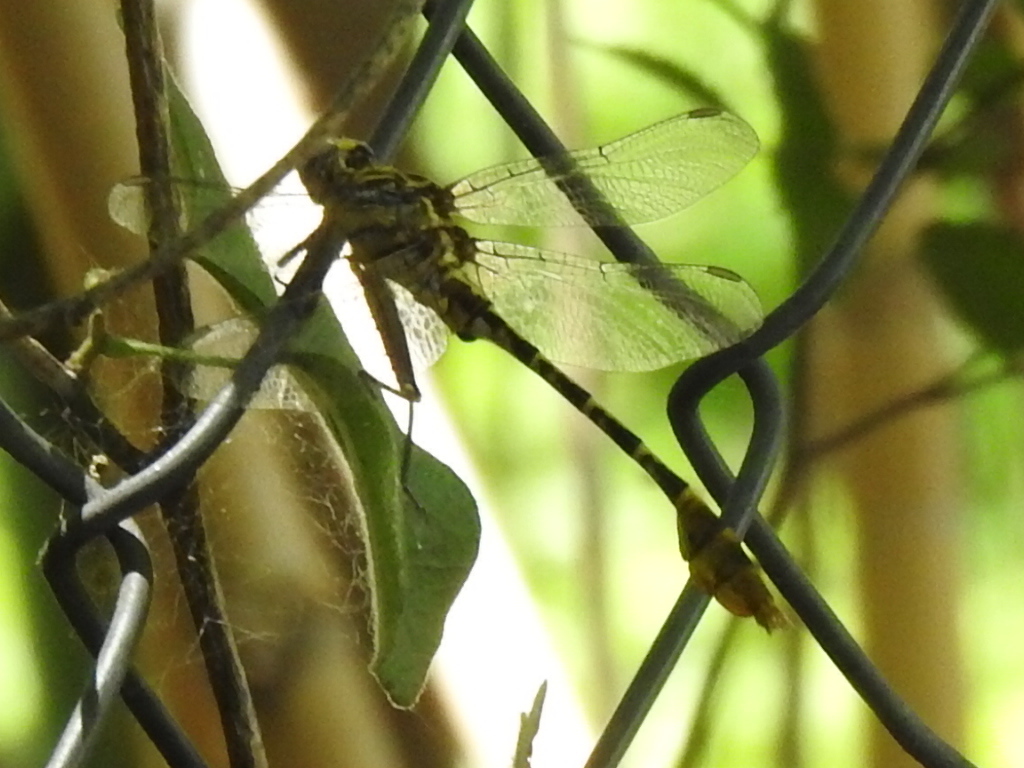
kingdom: Animalia
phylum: Arthropoda
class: Insecta
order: Odonata
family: Gomphidae
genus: Dromogomphus
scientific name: Dromogomphus spoliatus
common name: Flag-tailed spinyleg
